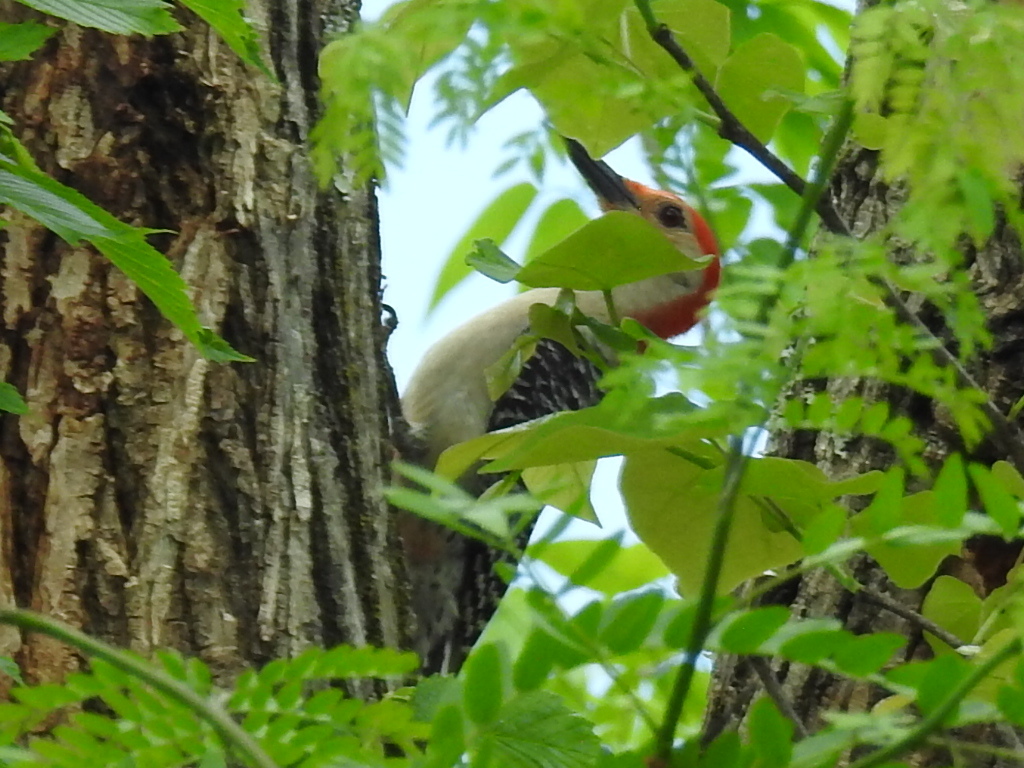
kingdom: Animalia
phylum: Chordata
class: Aves
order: Piciformes
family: Picidae
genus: Melanerpes
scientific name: Melanerpes carolinus
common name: Red-bellied woodpecker
